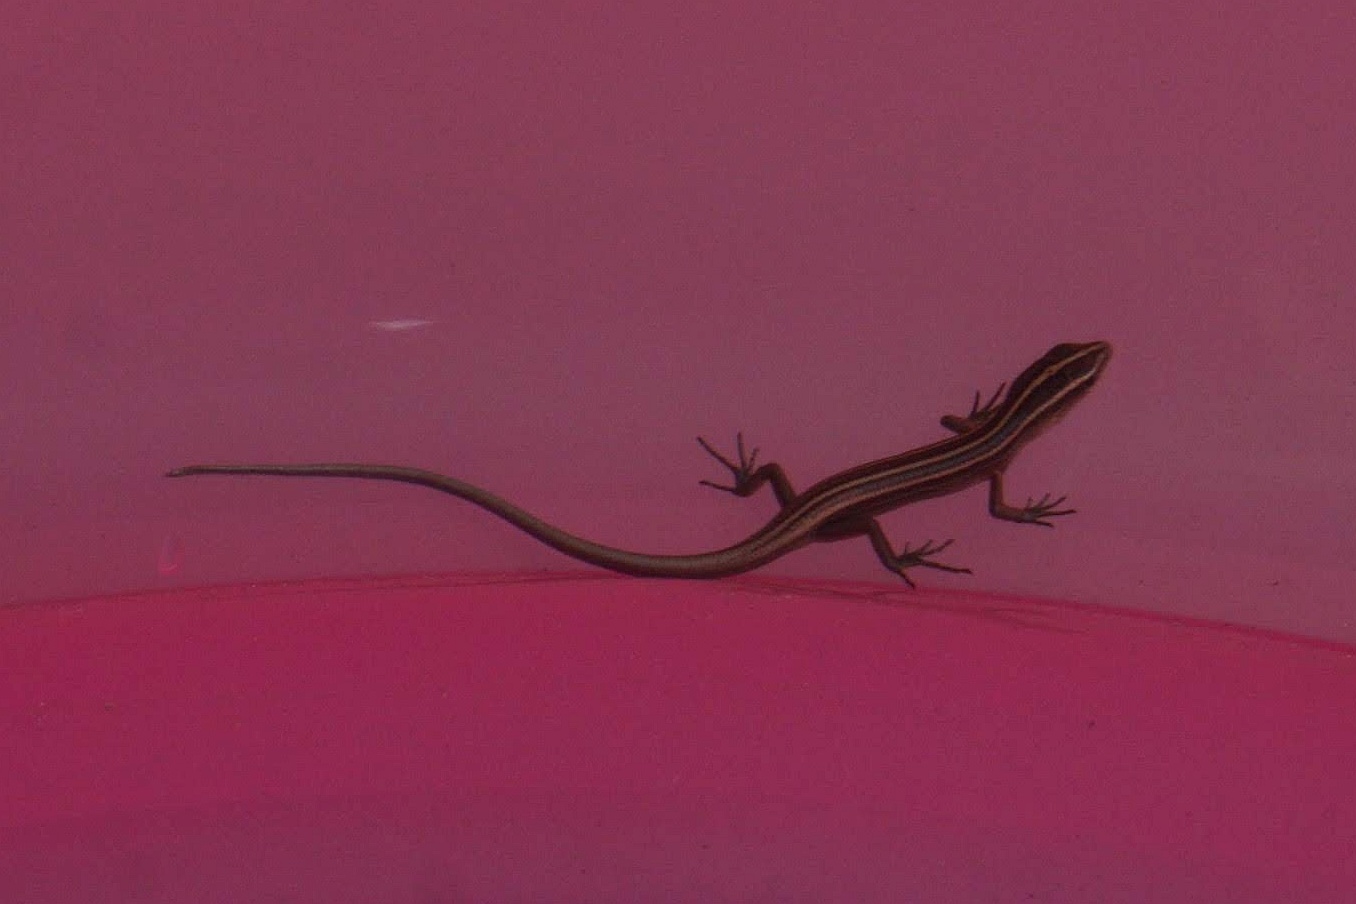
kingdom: Animalia
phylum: Chordata
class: Squamata
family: Scincidae
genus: Emoia
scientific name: Emoia cyanura
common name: Copper-tailed skink
